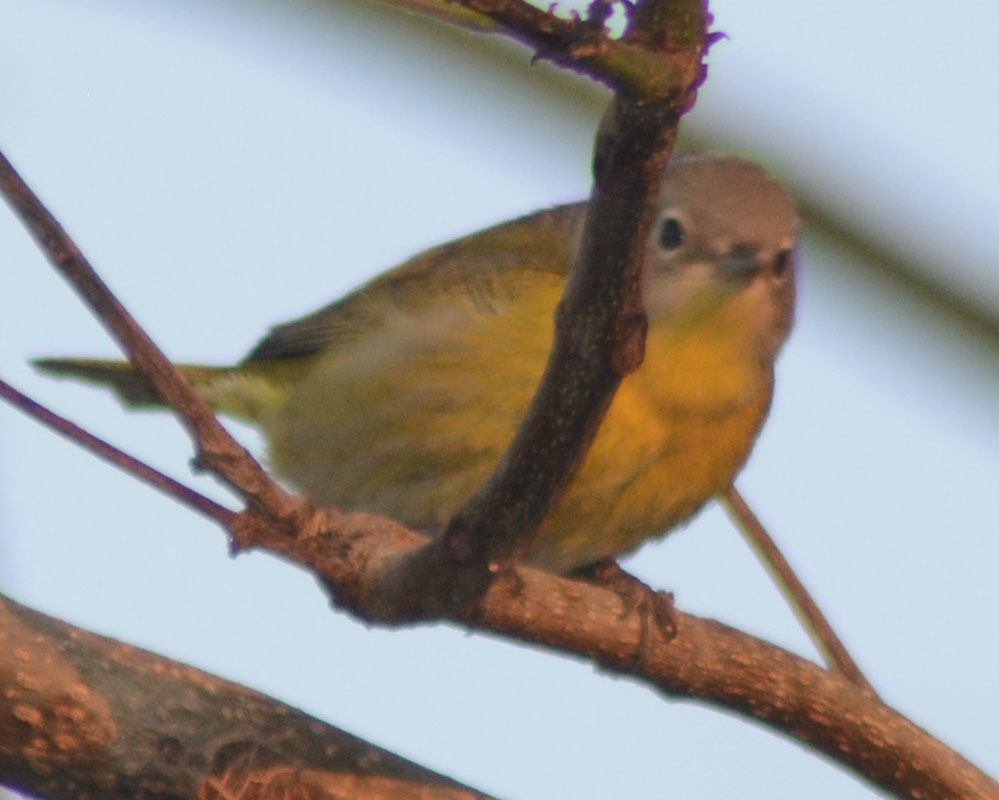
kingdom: Animalia
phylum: Chordata
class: Aves
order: Passeriformes
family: Parulidae
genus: Leiothlypis
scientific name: Leiothlypis ruficapilla
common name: Nashville warbler
